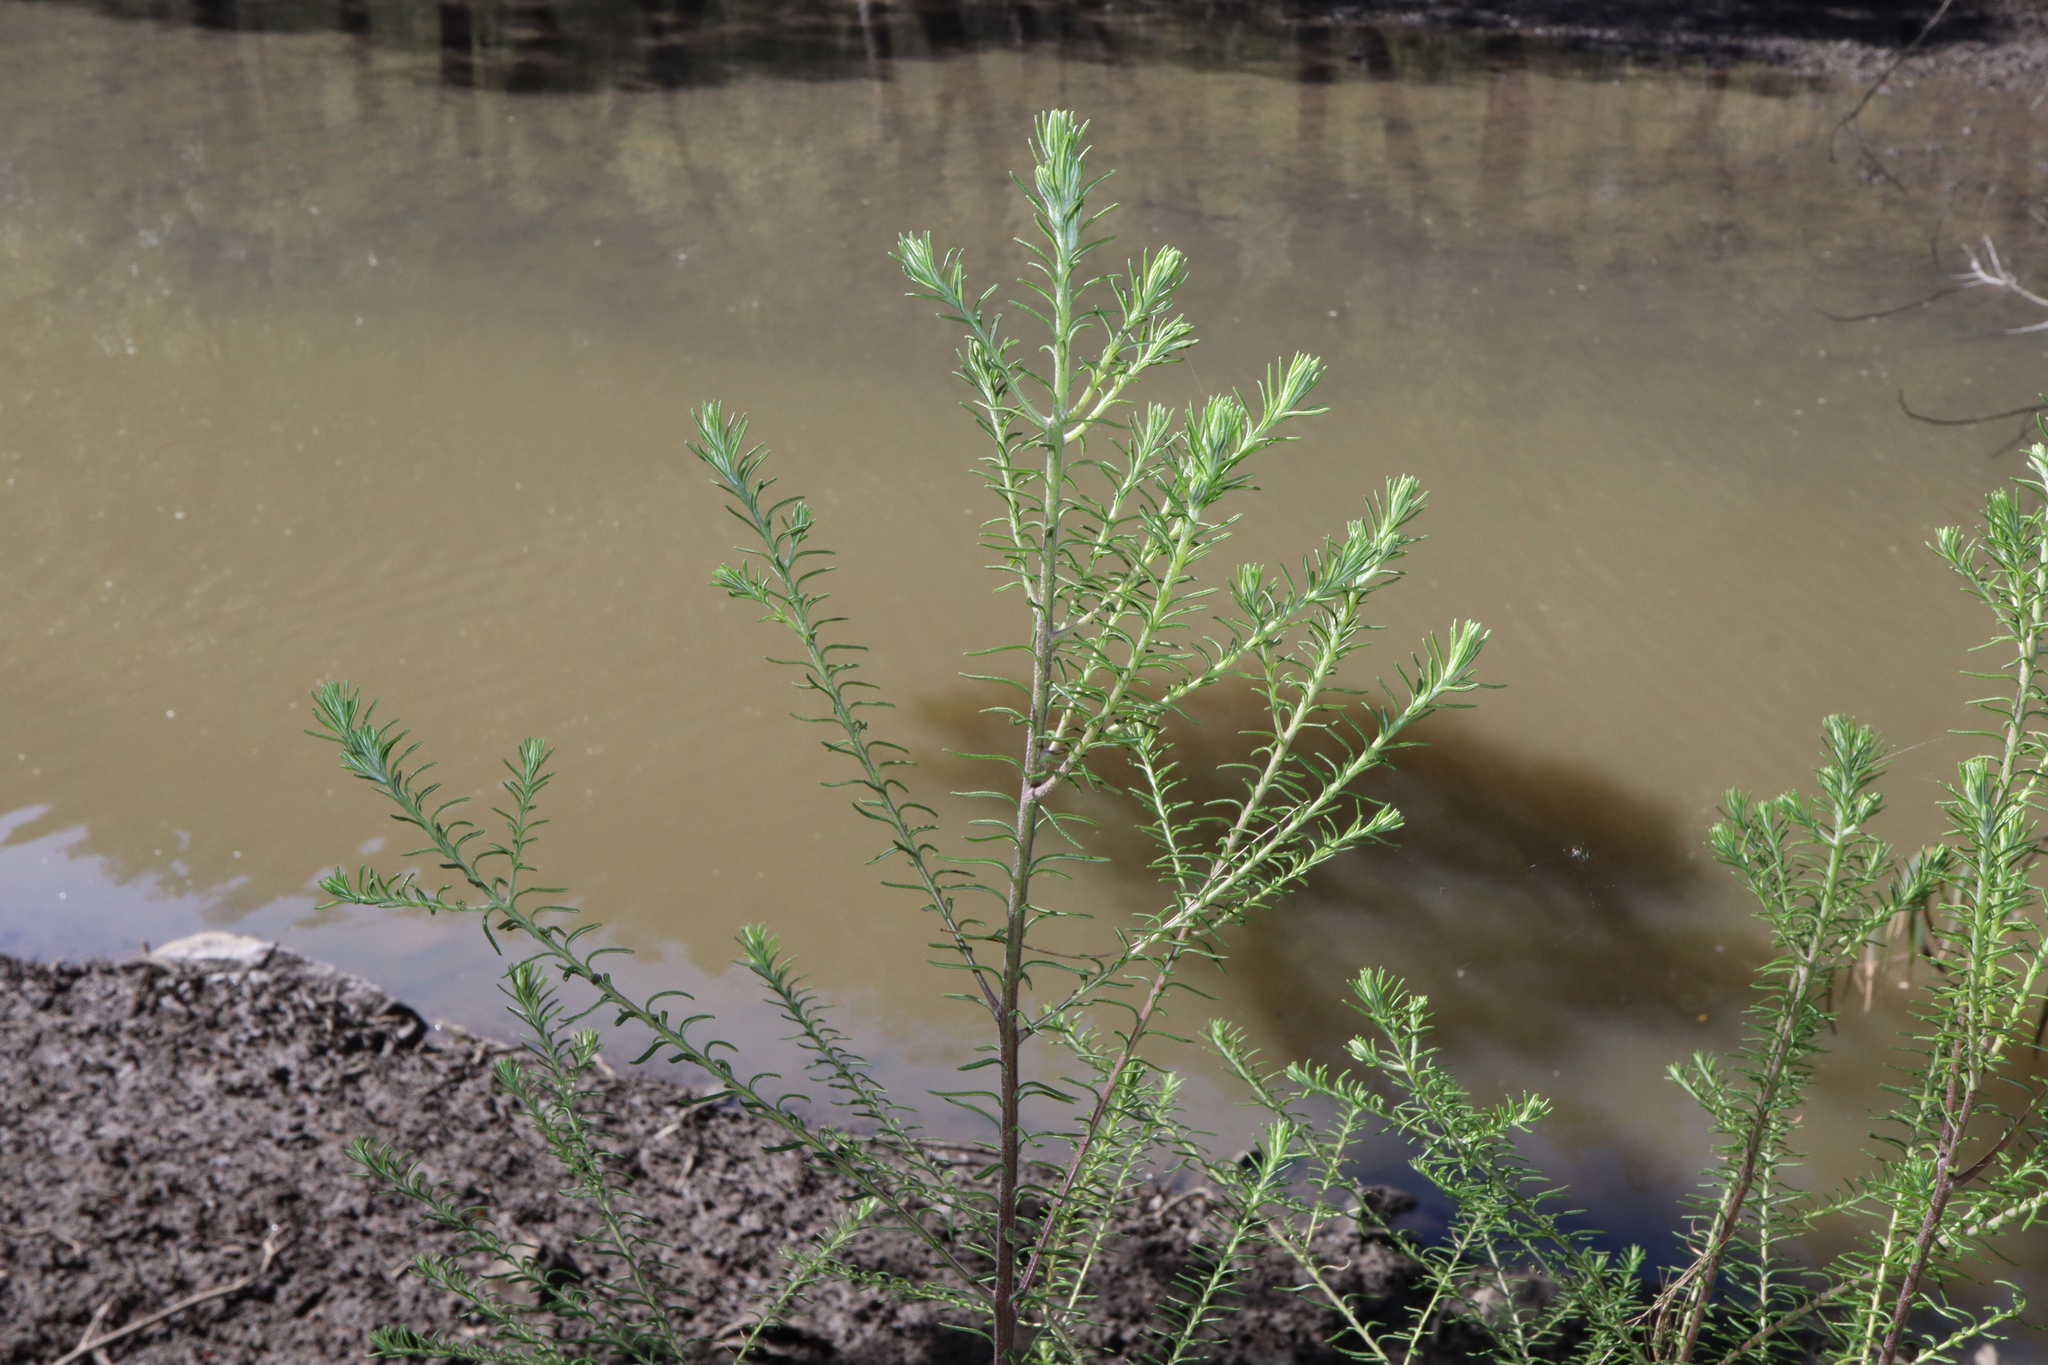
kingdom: Plantae
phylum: Tracheophyta
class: Magnoliopsida
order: Asterales
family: Asteraceae
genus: Ozothamnus
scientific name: Ozothamnus diosmifolius
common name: White-dogwood
